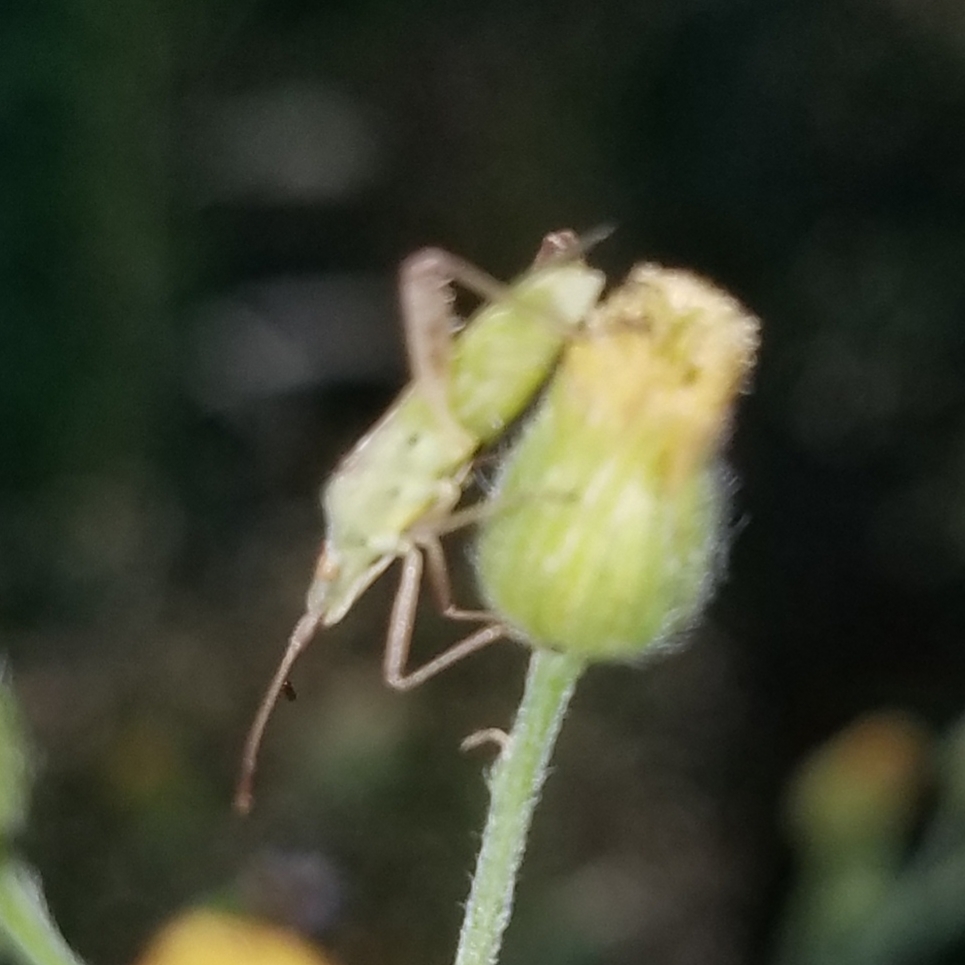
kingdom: Animalia
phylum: Arthropoda
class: Insecta
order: Hemiptera
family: Rhopalidae
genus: Harmostes
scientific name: Harmostes reflexulus
